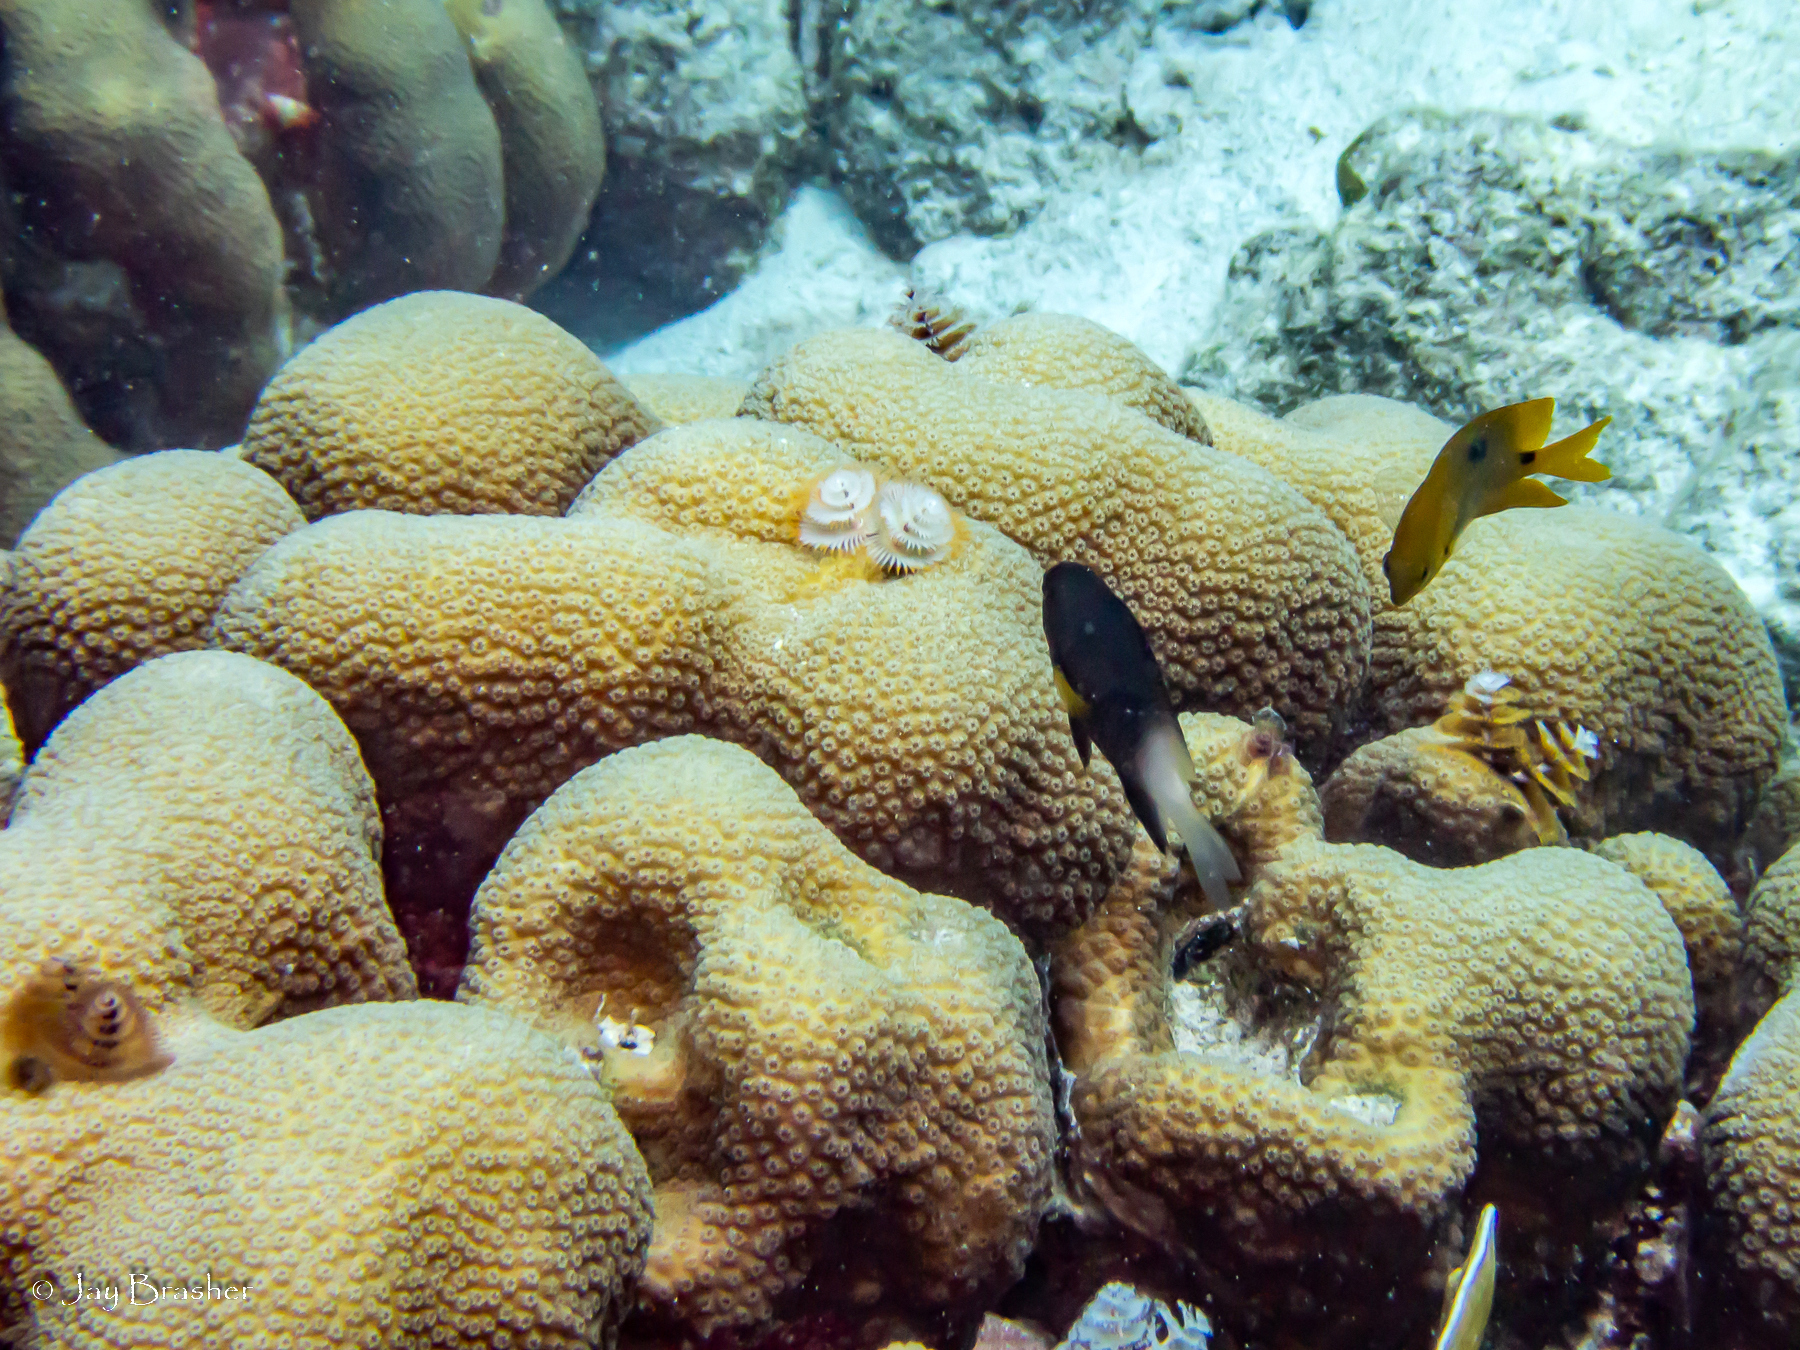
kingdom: Animalia
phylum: Annelida
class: Polychaeta
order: Sabellida
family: Serpulidae
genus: Spirobranchus
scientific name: Spirobranchus giganteus
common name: Christmas tree worm
